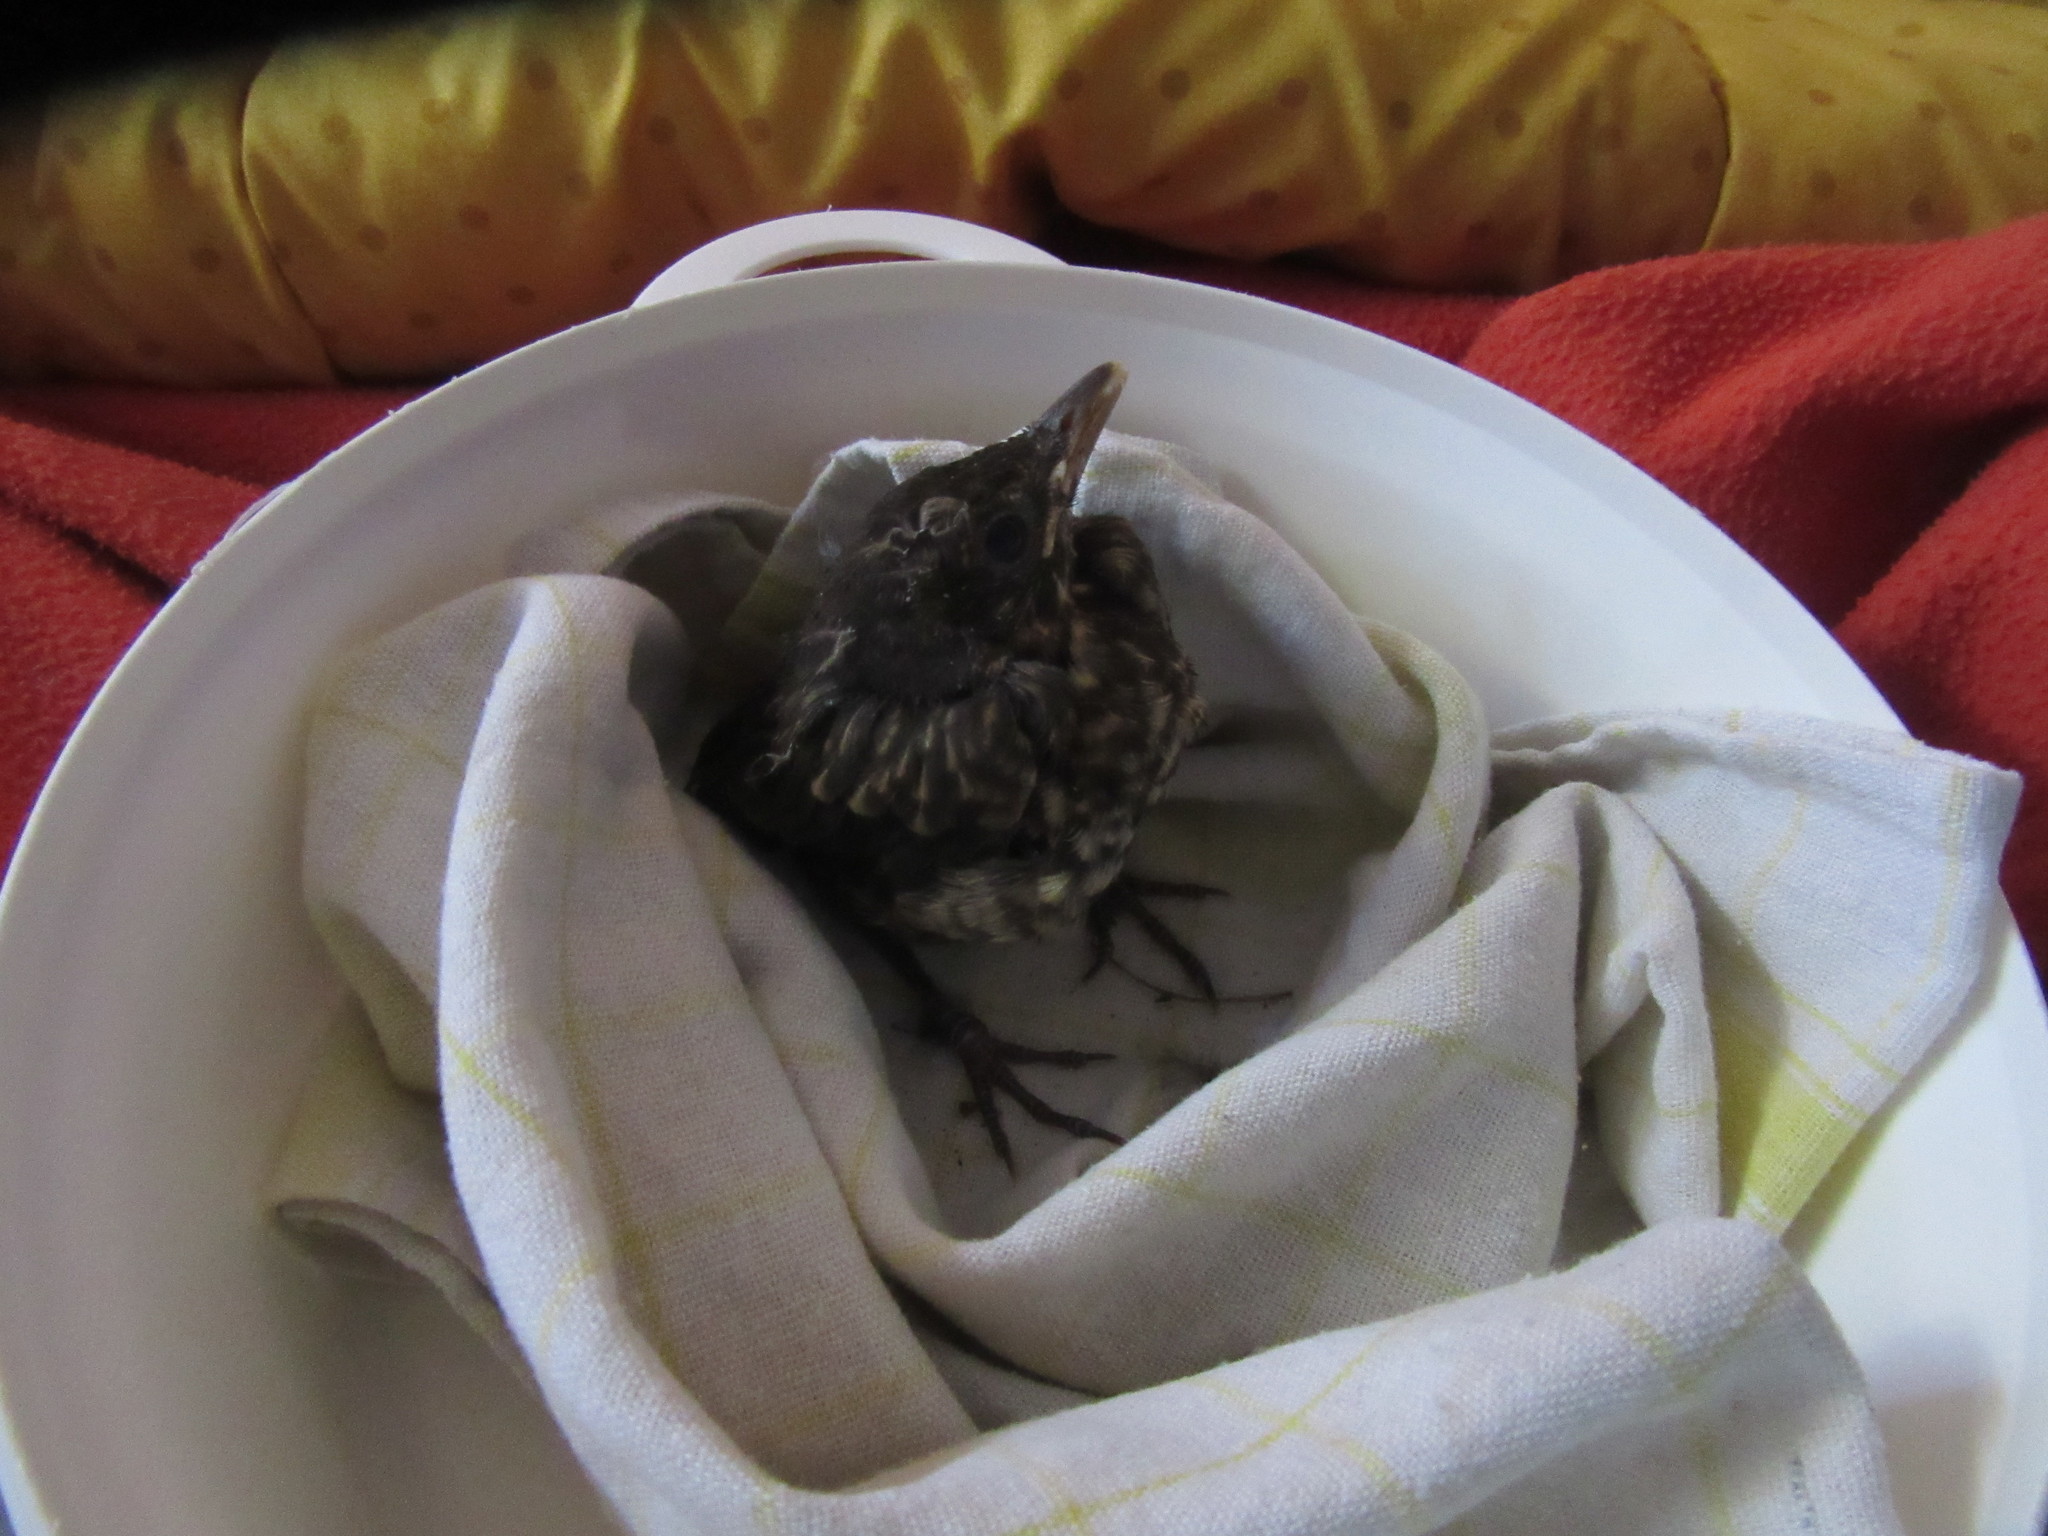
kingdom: Animalia
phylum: Chordata
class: Aves
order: Passeriformes
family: Turdidae
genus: Turdus
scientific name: Turdus merula
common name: Common blackbird
